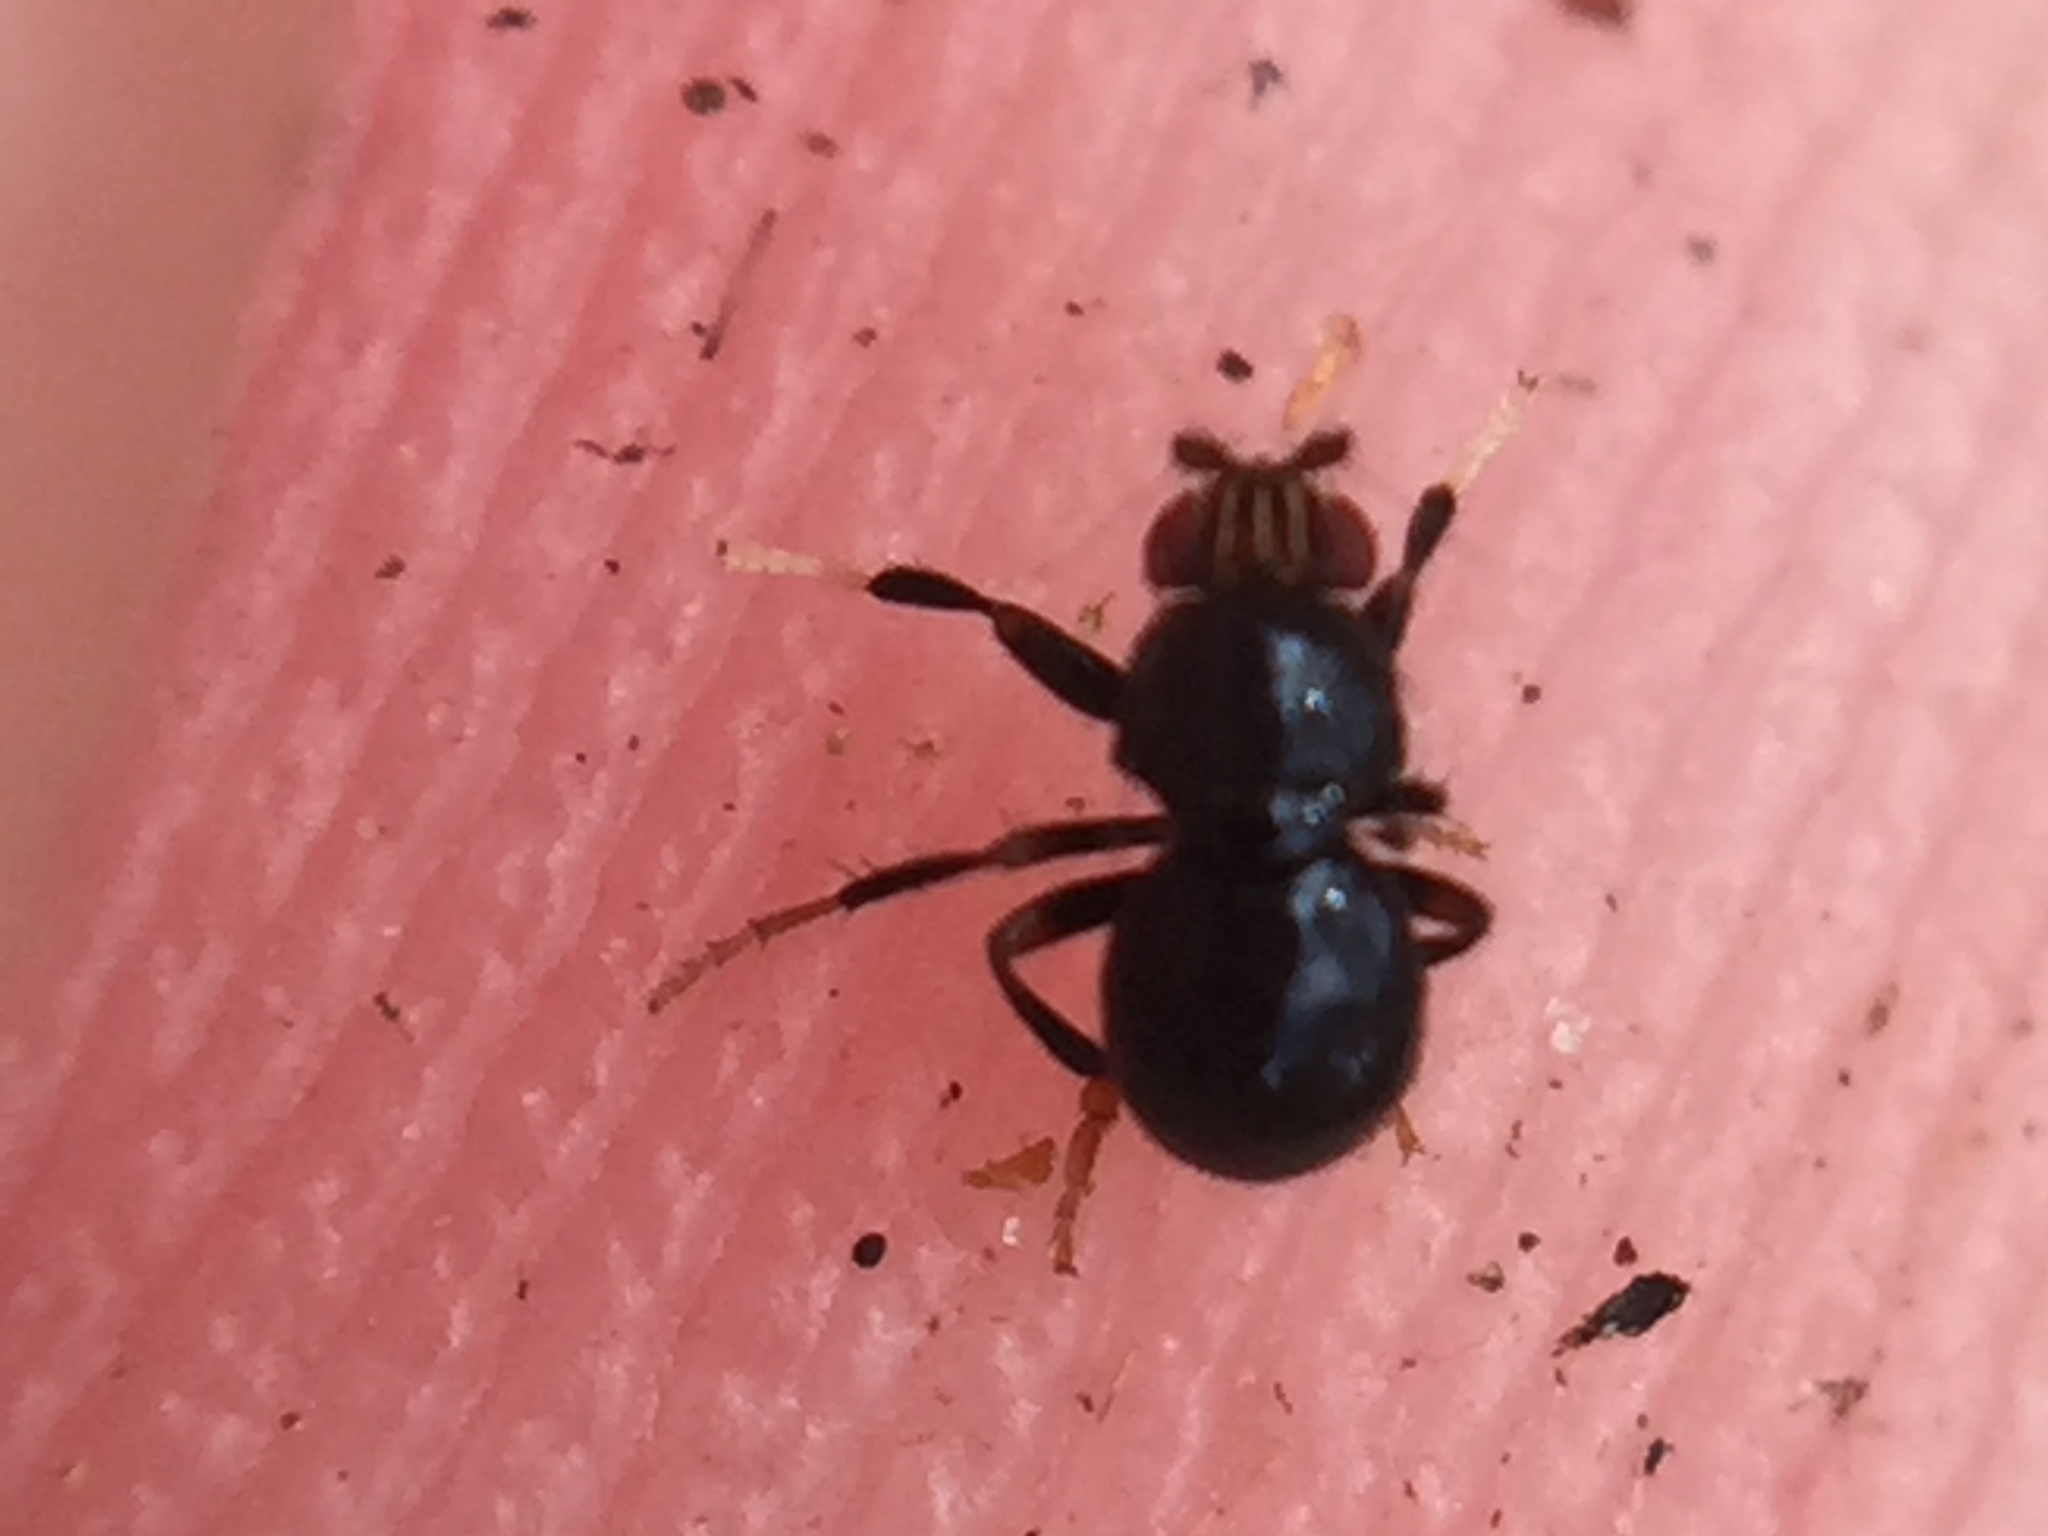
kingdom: Animalia
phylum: Arthropoda
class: Insecta
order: Diptera
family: Sphaeroceridae
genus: Howickia
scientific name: Howickia trilineata
